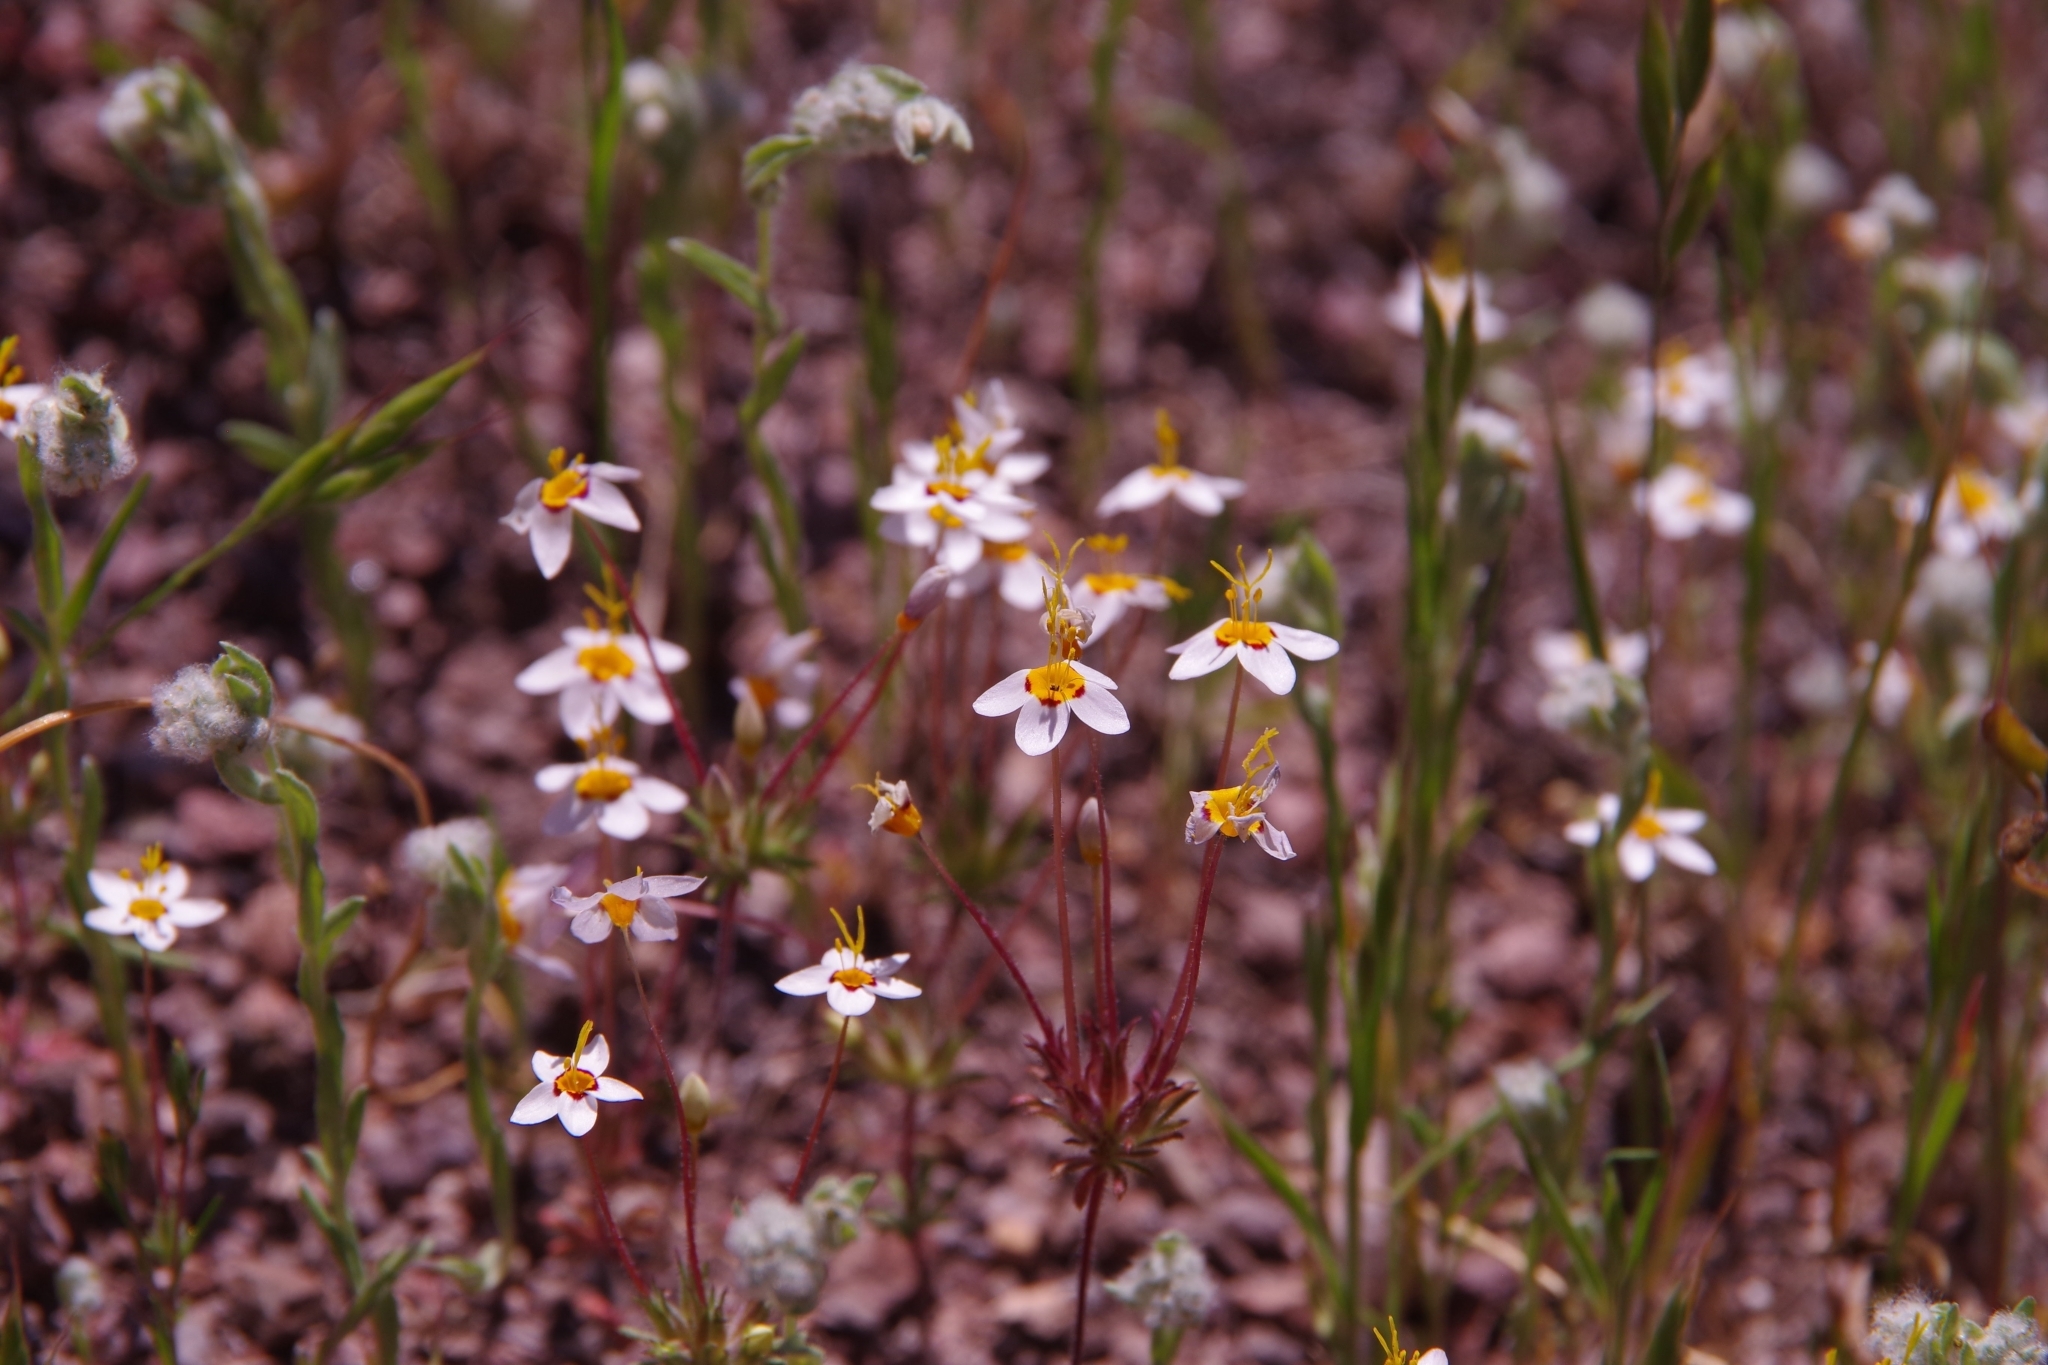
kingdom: Plantae
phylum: Tracheophyta
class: Magnoliopsida
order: Ericales
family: Polemoniaceae
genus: Leptosiphon
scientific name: Leptosiphon parviflorus
